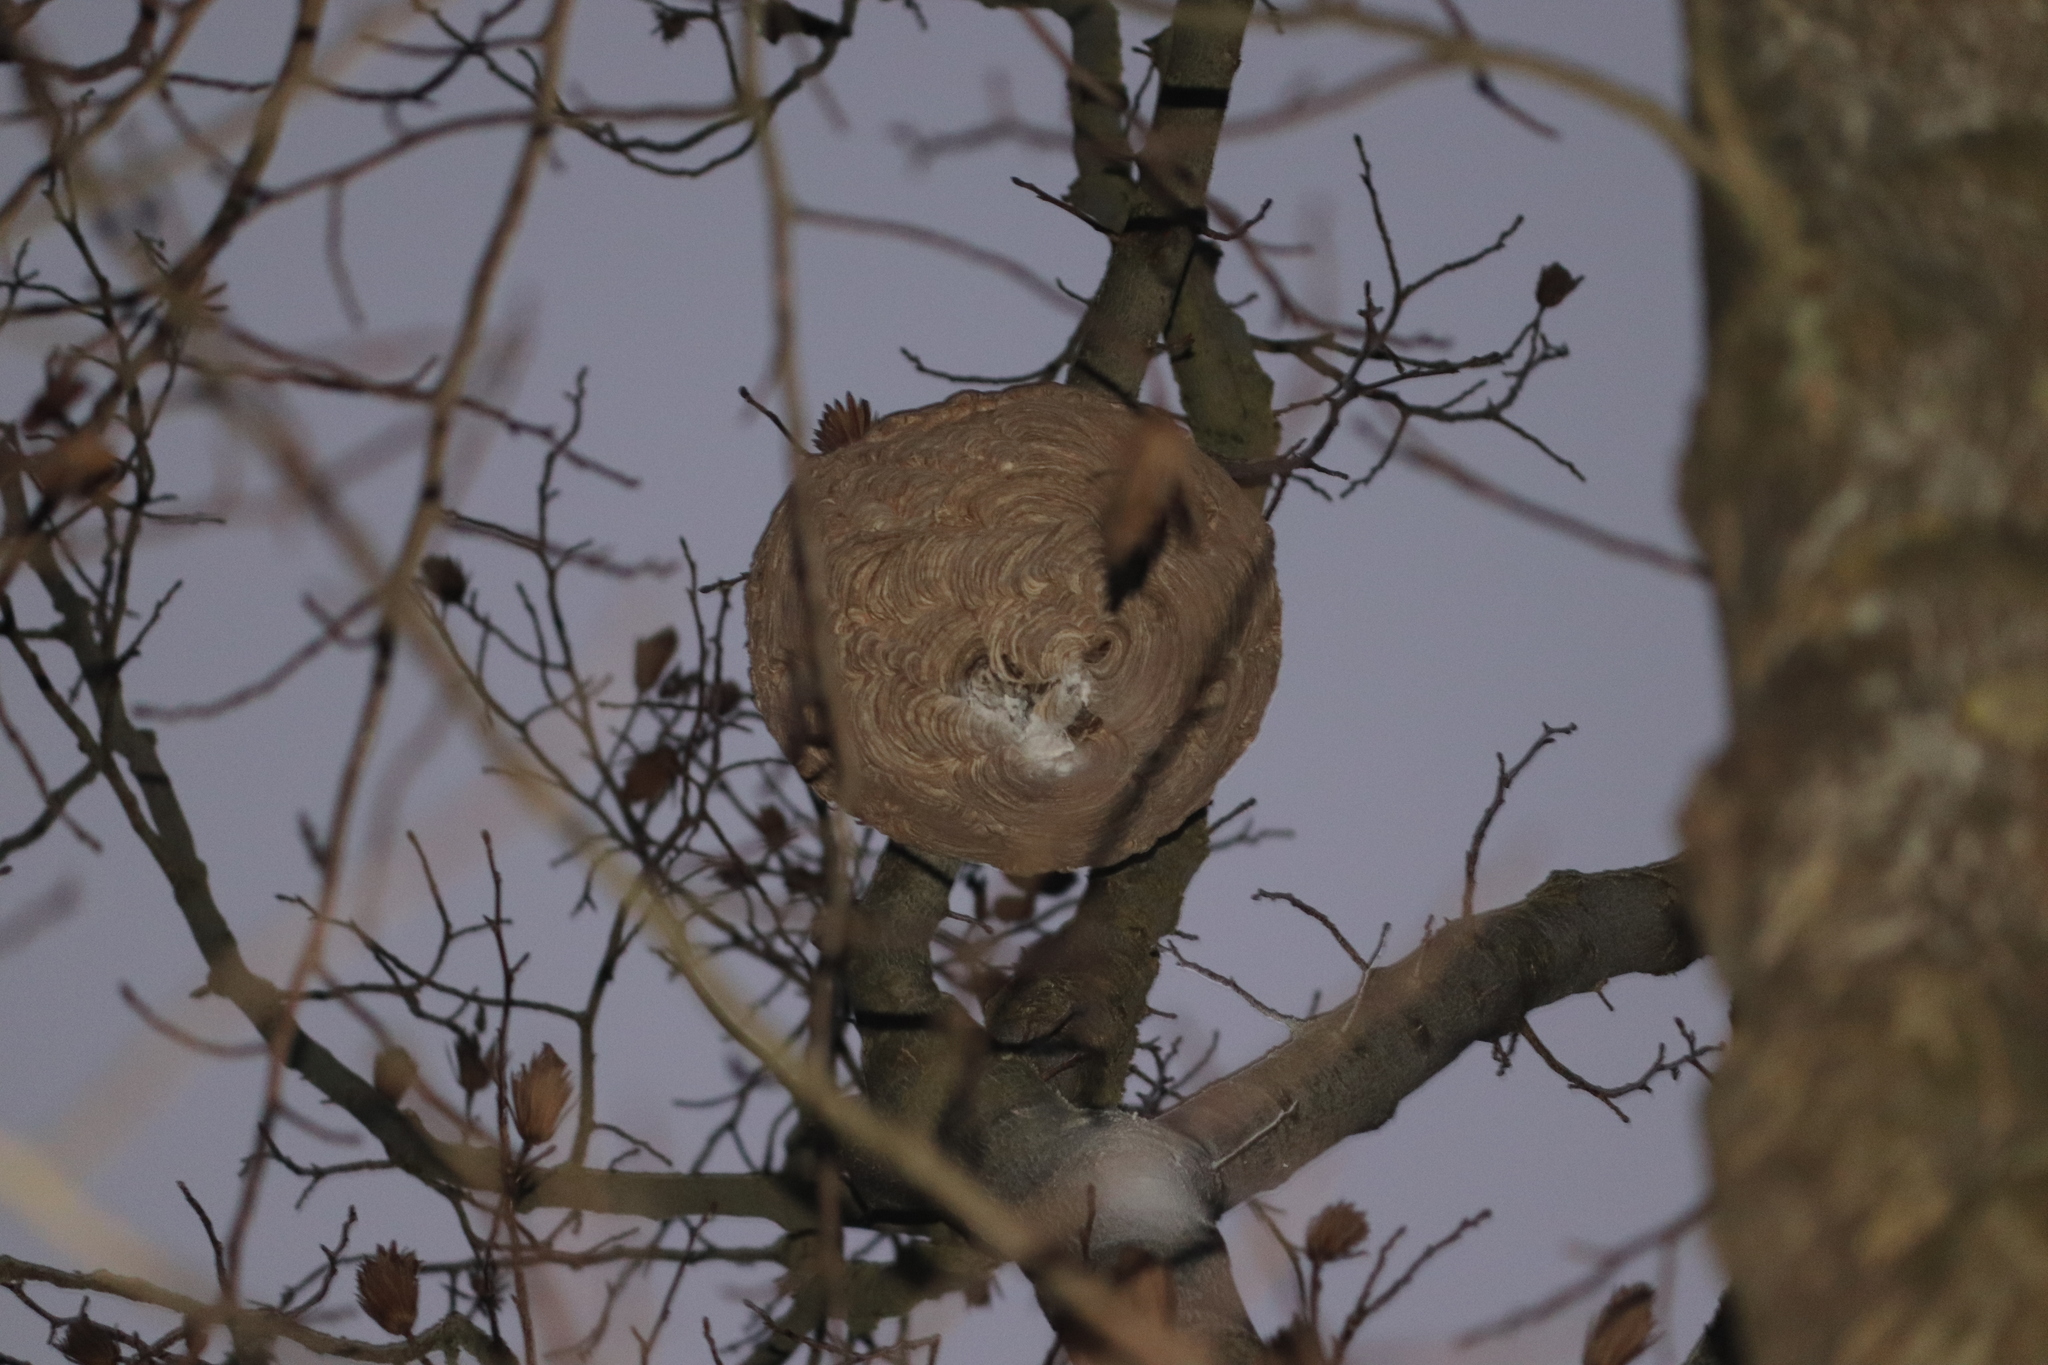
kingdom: Animalia
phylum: Arthropoda
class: Insecta
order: Hymenoptera
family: Vespidae
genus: Vespa
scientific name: Vespa velutina
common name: Asian hornet
